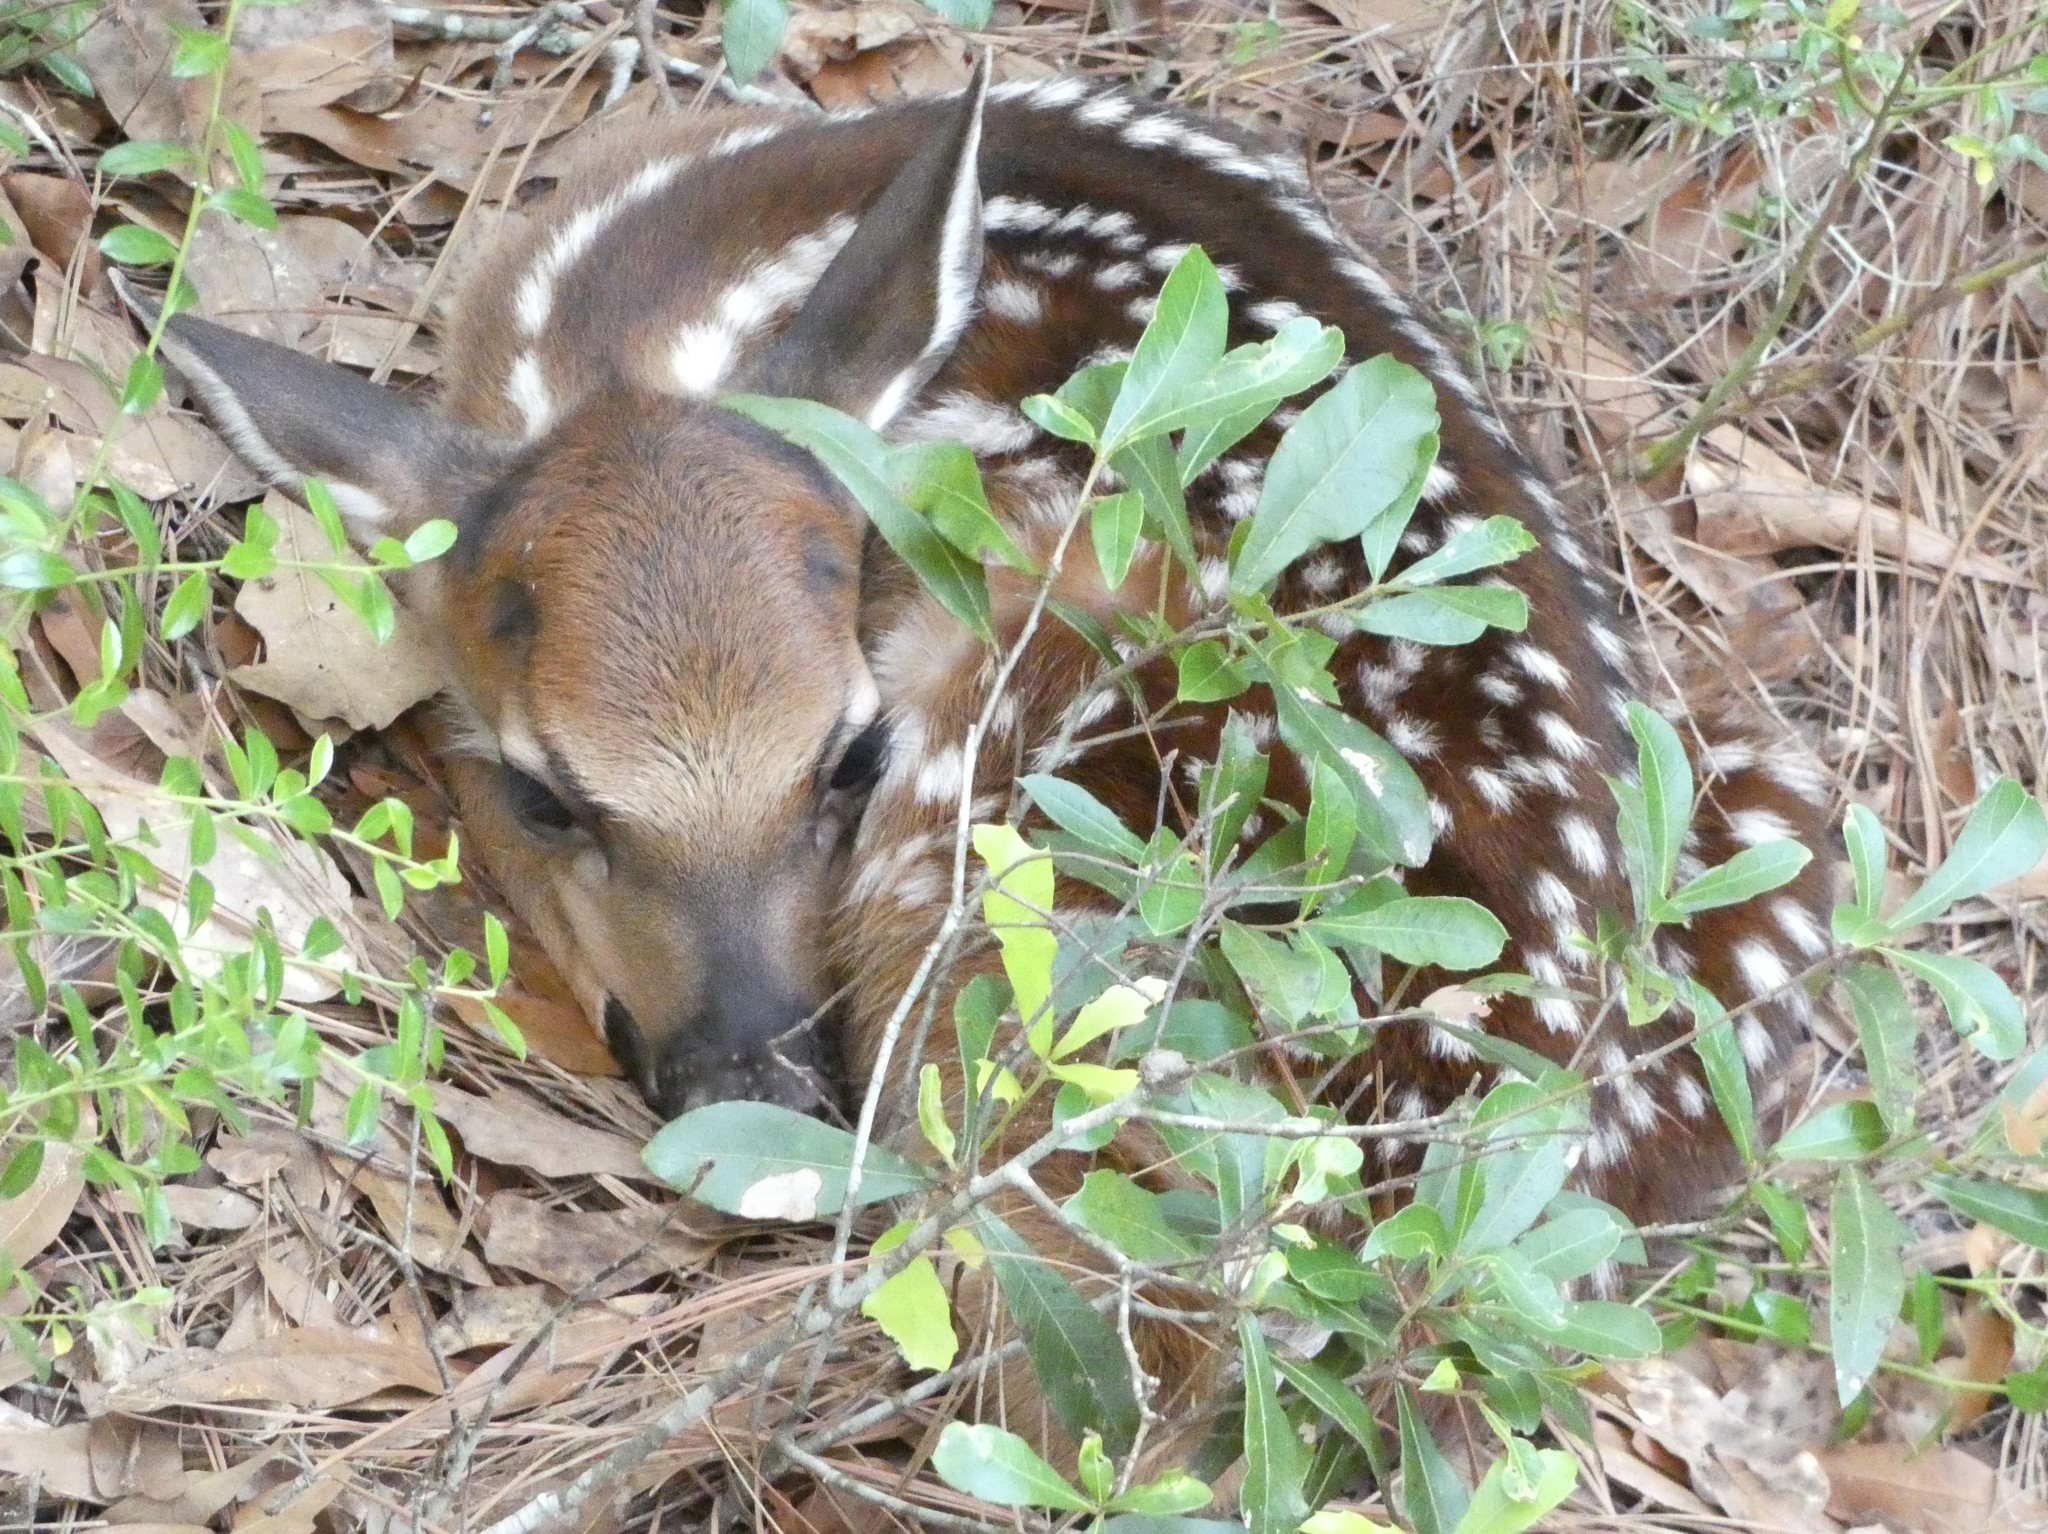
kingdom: Animalia
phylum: Chordata
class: Mammalia
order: Artiodactyla
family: Cervidae
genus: Odocoileus
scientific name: Odocoileus virginianus
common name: White-tailed deer
